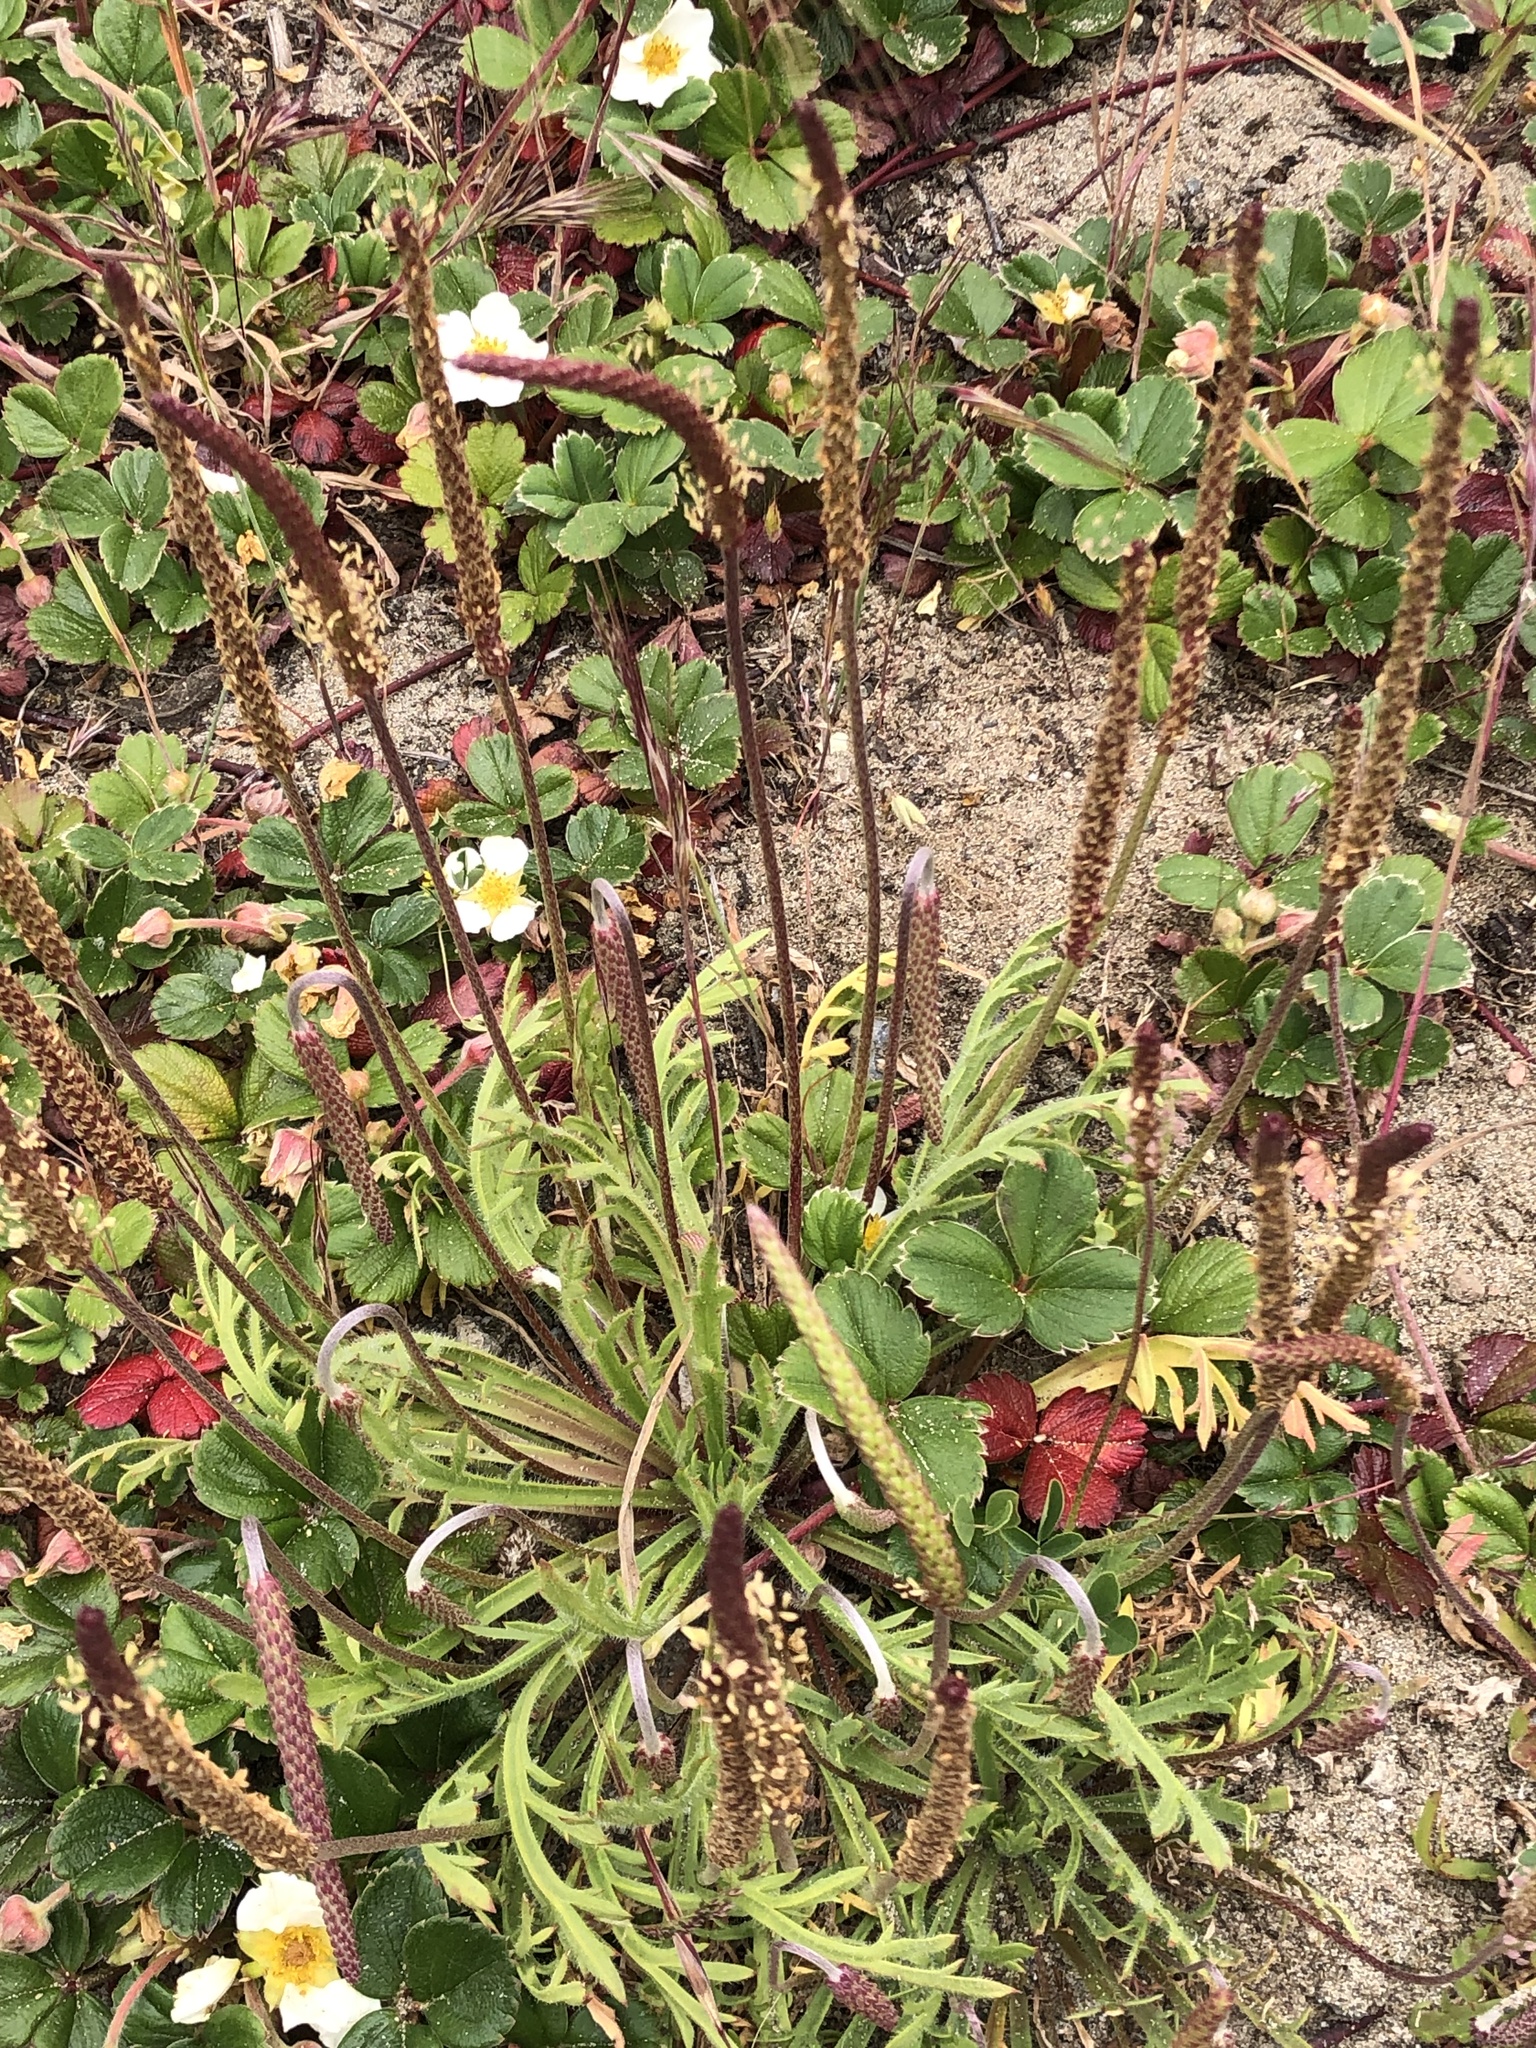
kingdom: Plantae
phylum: Tracheophyta
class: Magnoliopsida
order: Lamiales
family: Plantaginaceae
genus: Plantago
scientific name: Plantago coronopus
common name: Buck's-horn plantain
